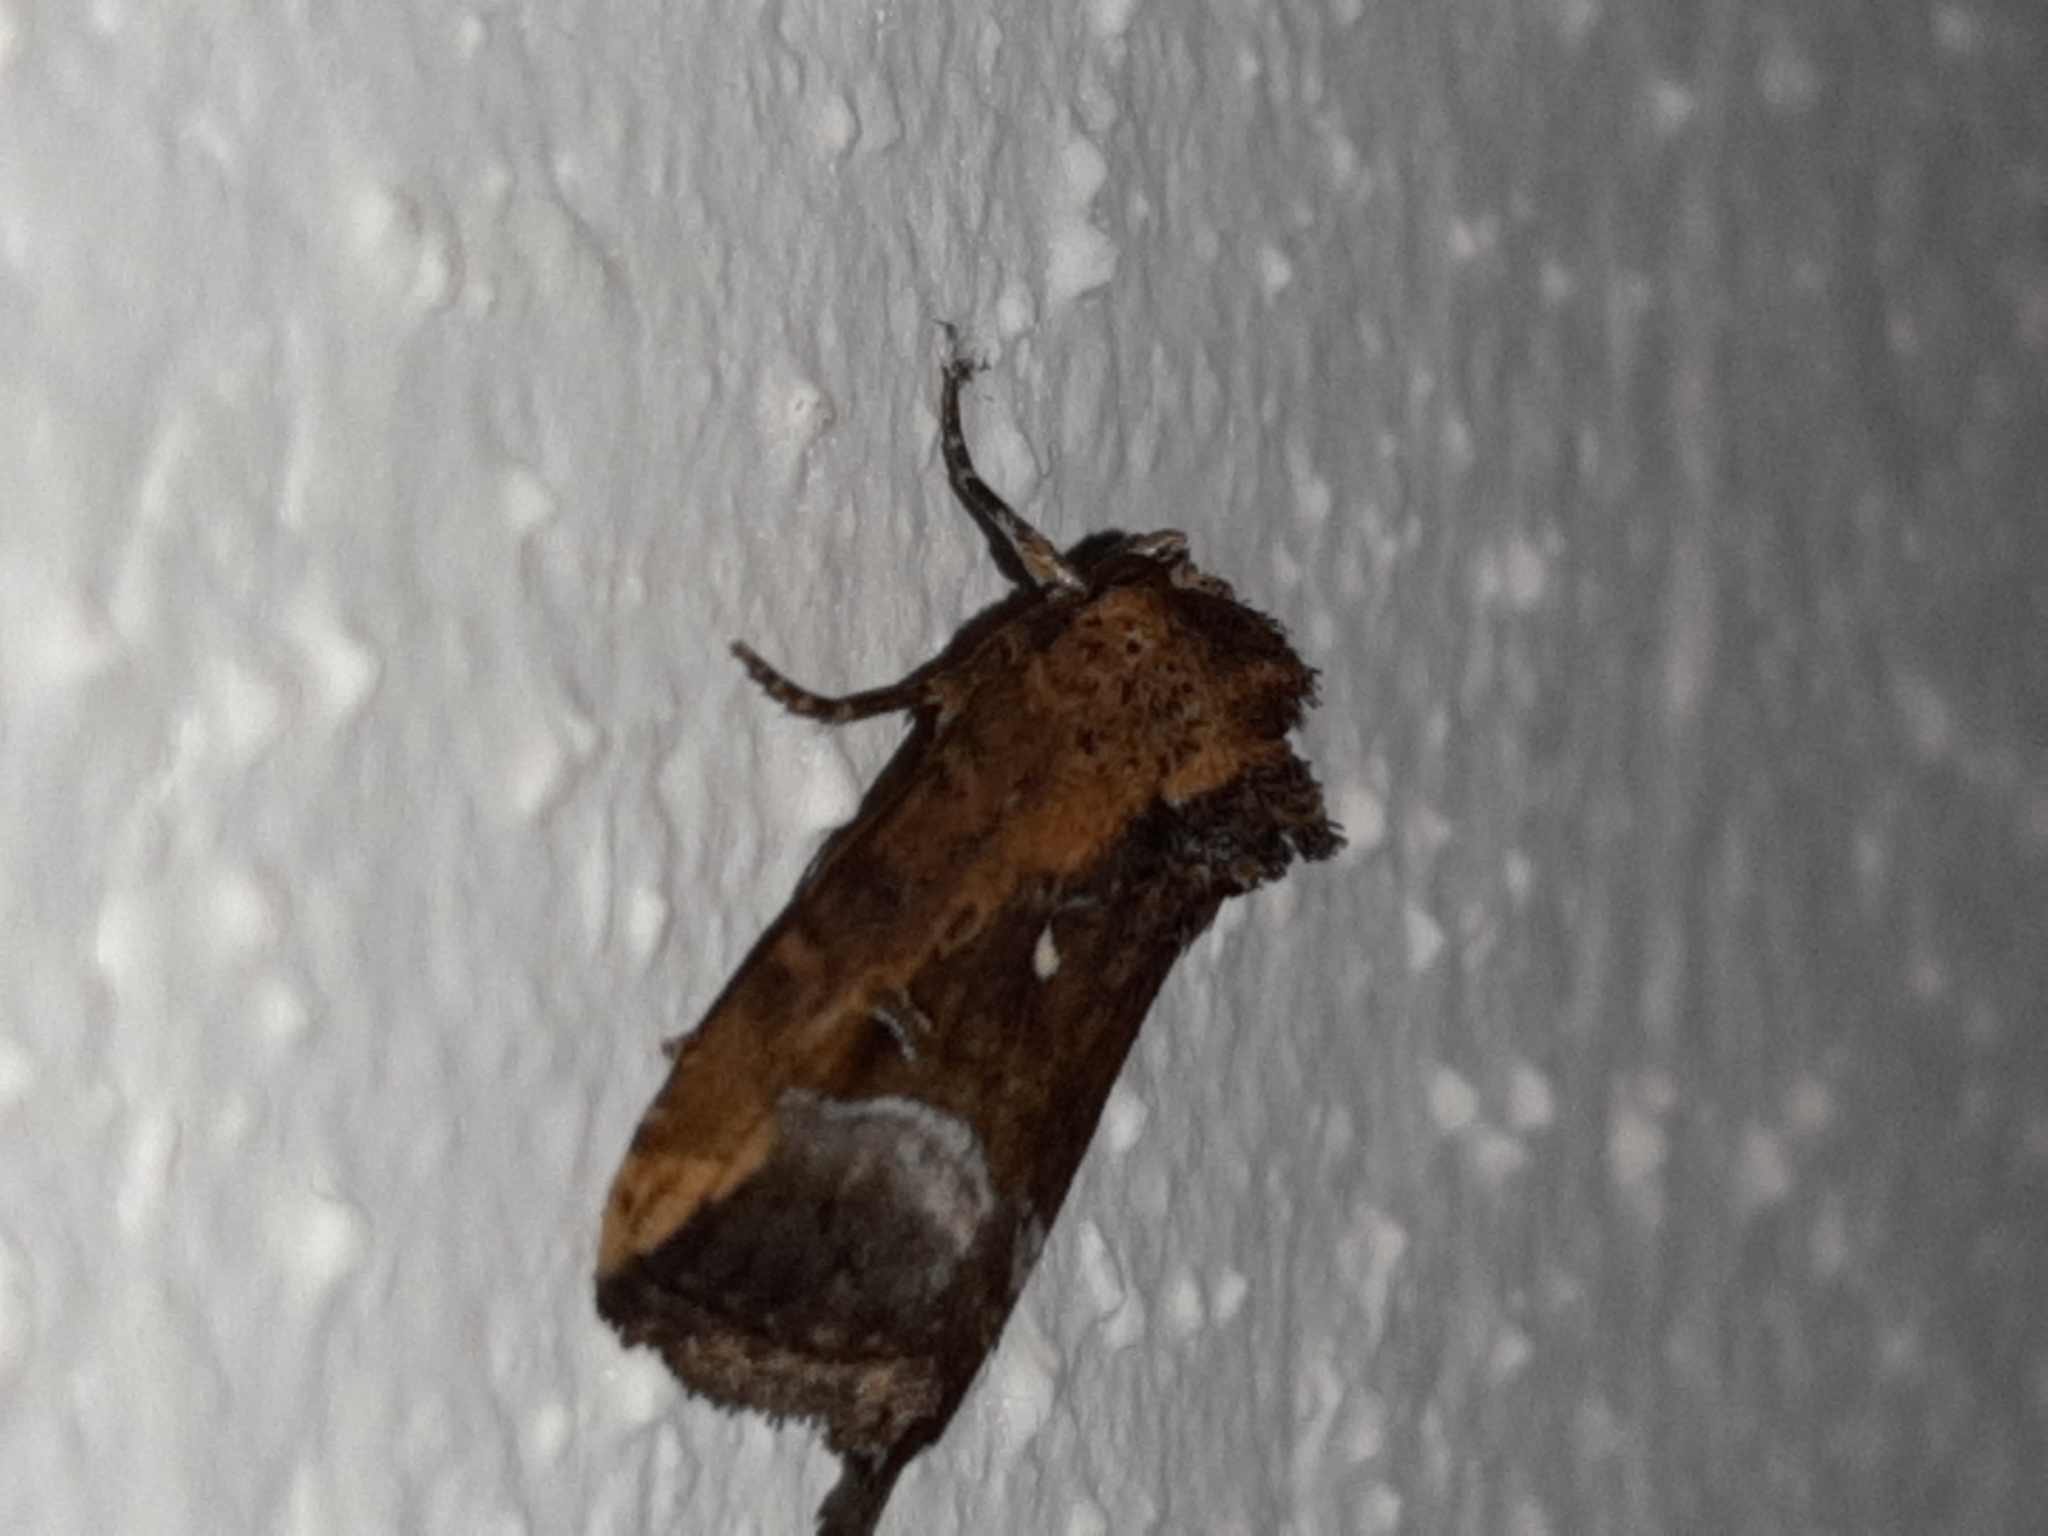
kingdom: Animalia
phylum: Arthropoda
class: Insecta
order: Lepidoptera
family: Noctuidae
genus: Elaphria
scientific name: Elaphria subobliqua
